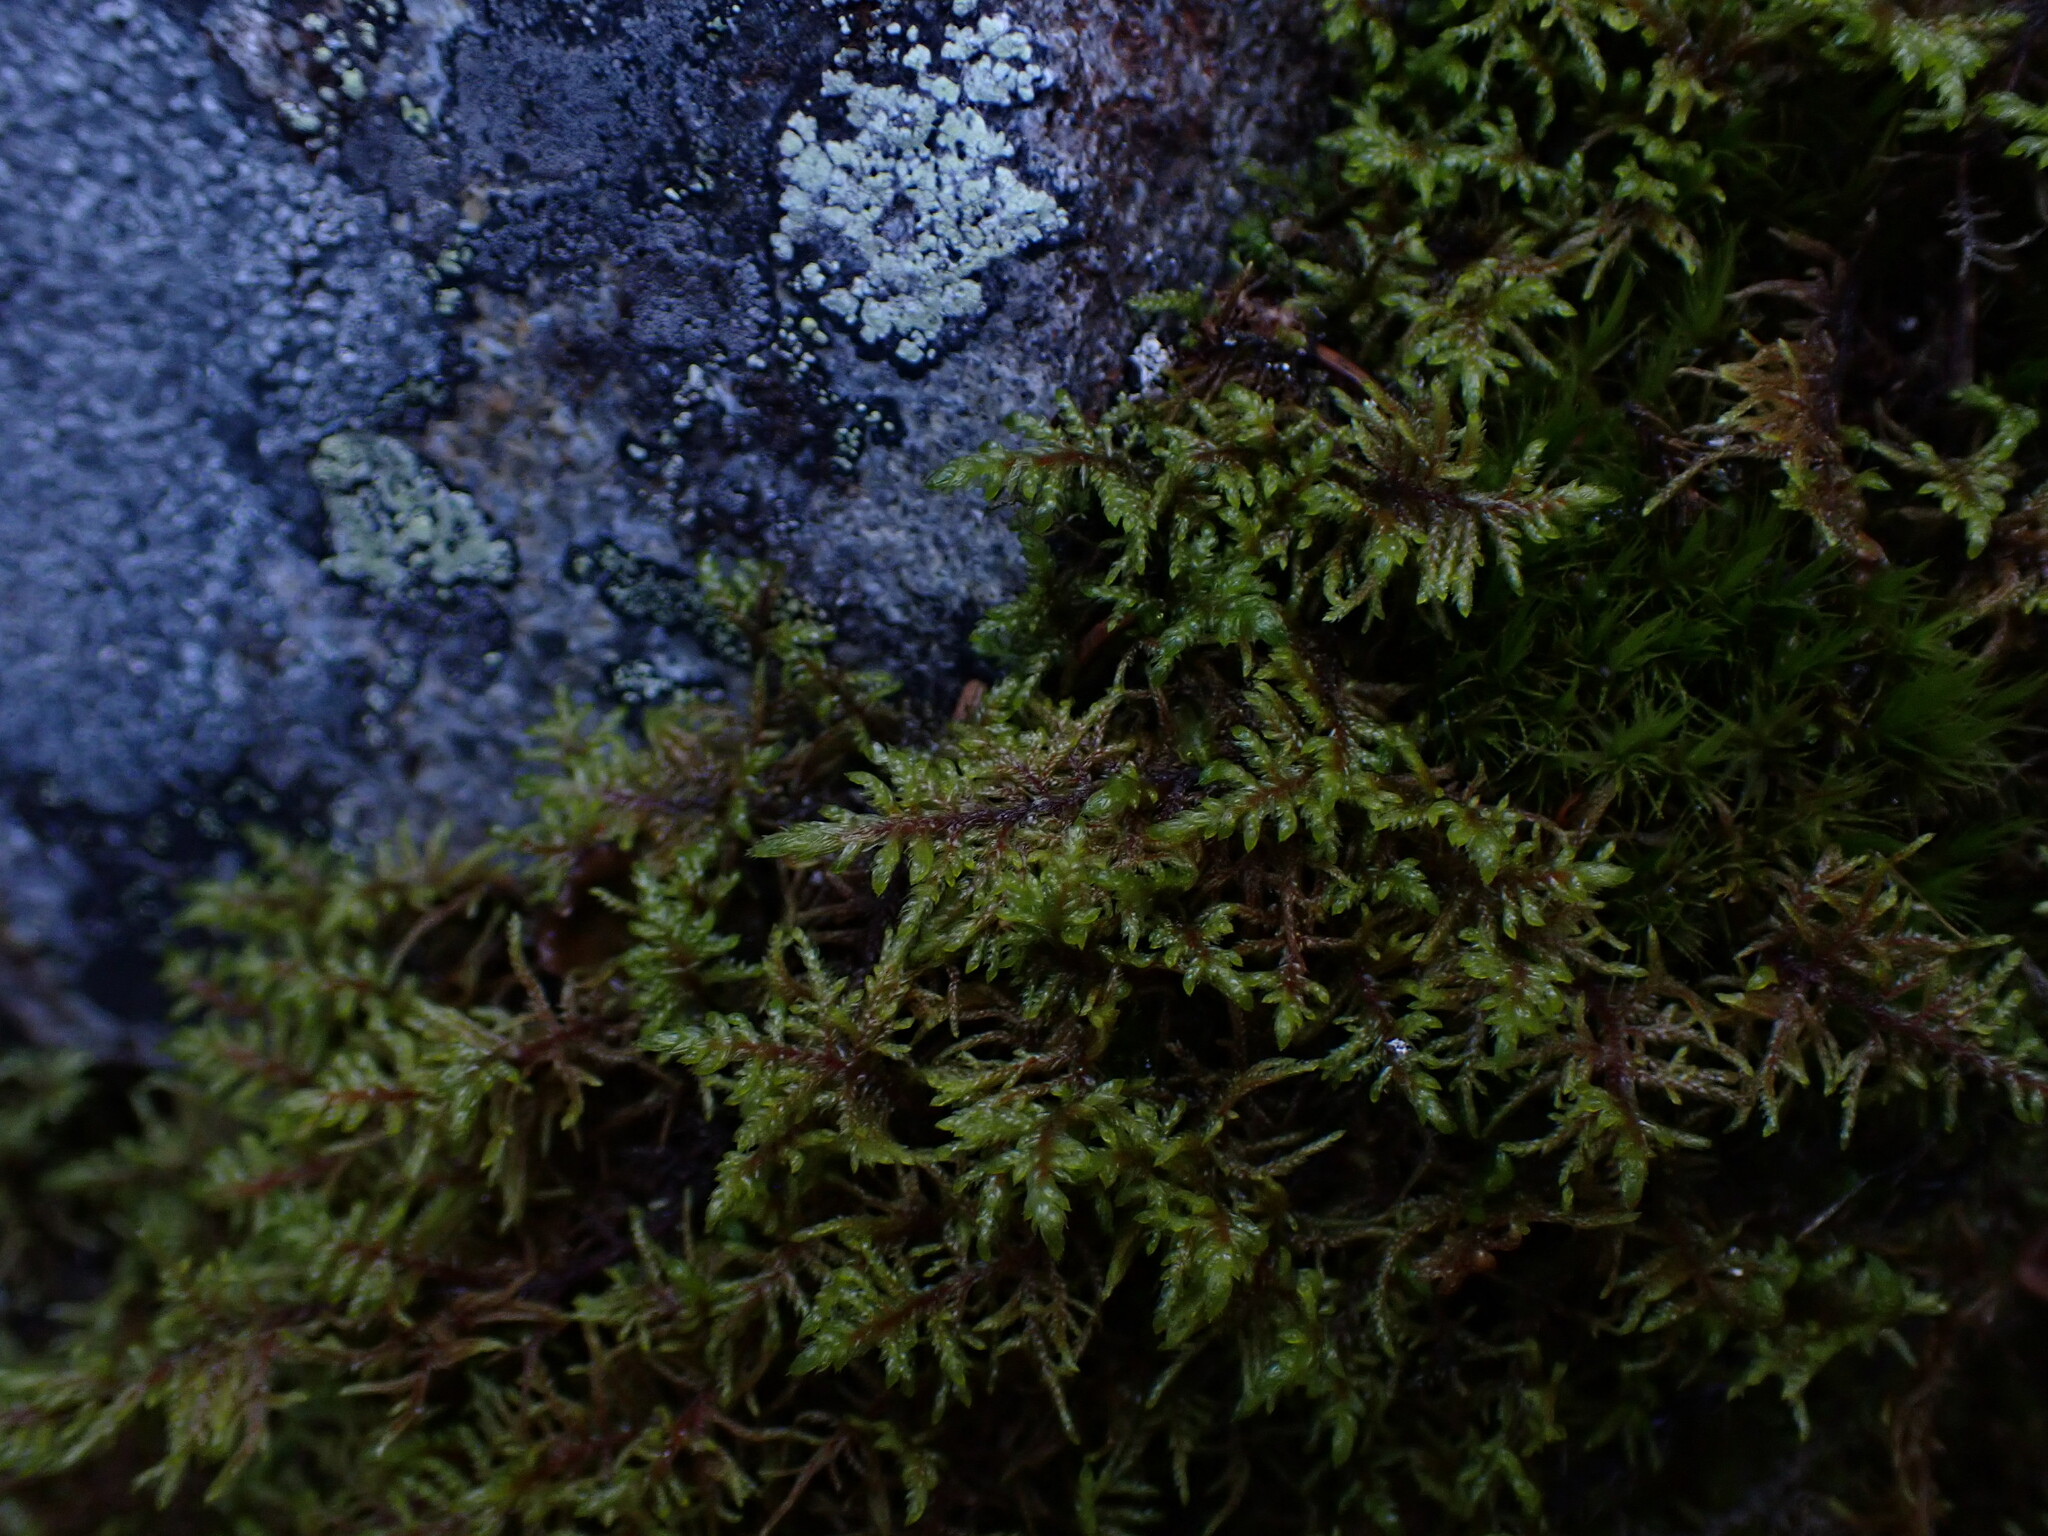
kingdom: Plantae
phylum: Bryophyta
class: Bryopsida
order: Hypnales
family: Hylocomiaceae
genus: Hylocomium
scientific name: Hylocomium splendens
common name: Stairstep moss
